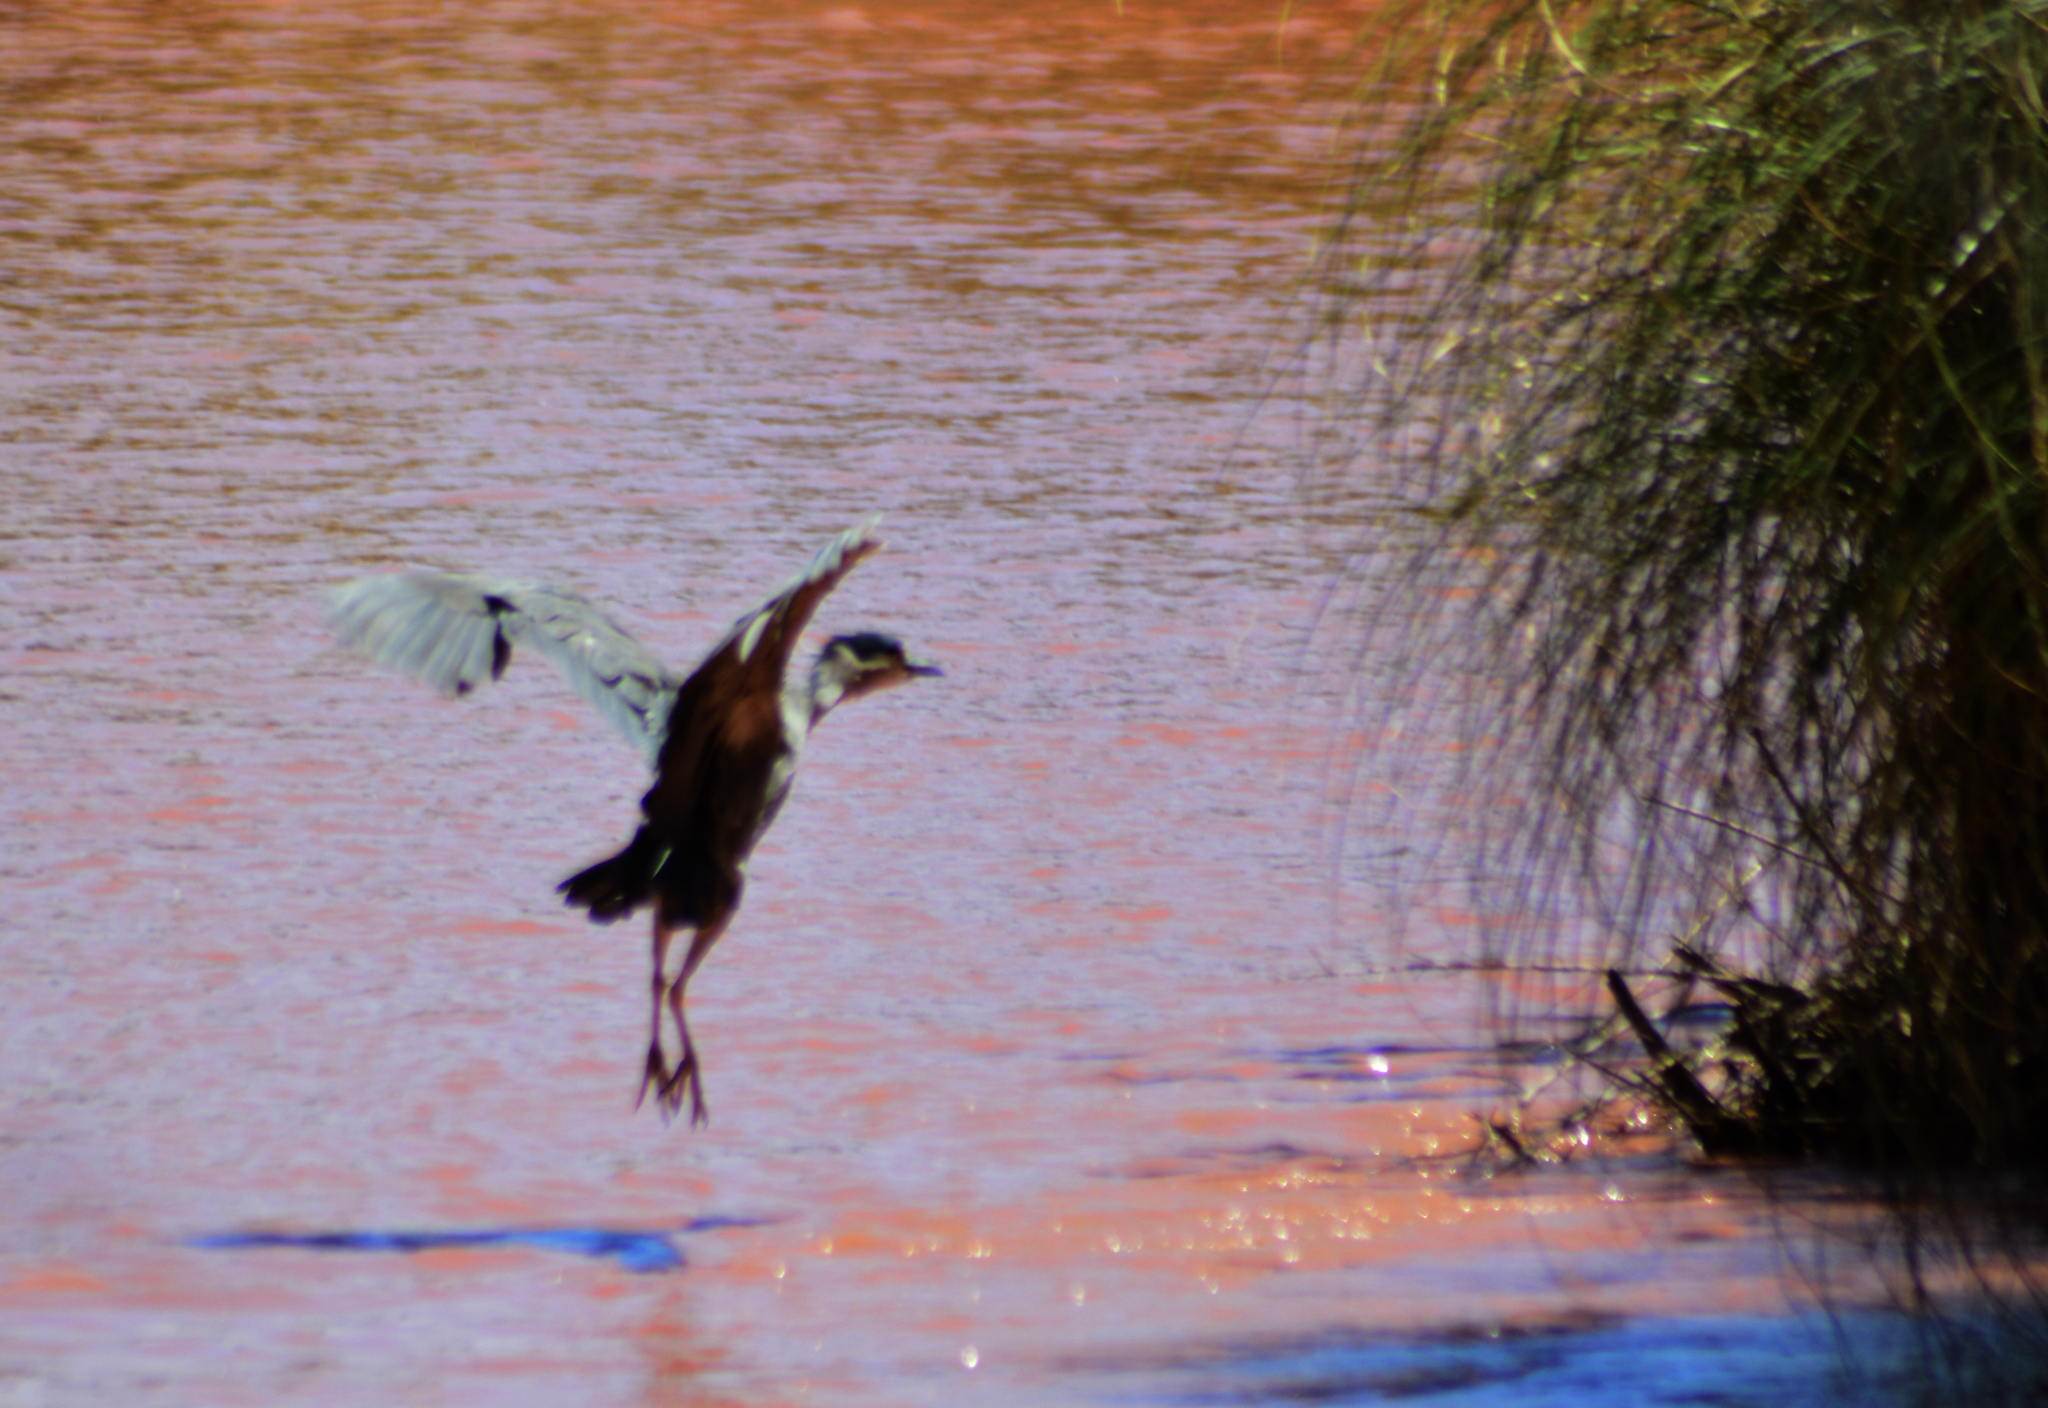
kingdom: Animalia
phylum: Chordata
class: Aves
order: Pelecaniformes
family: Ardeidae
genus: Nycticorax
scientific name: Nycticorax nycticorax
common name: Black-crowned night heron
